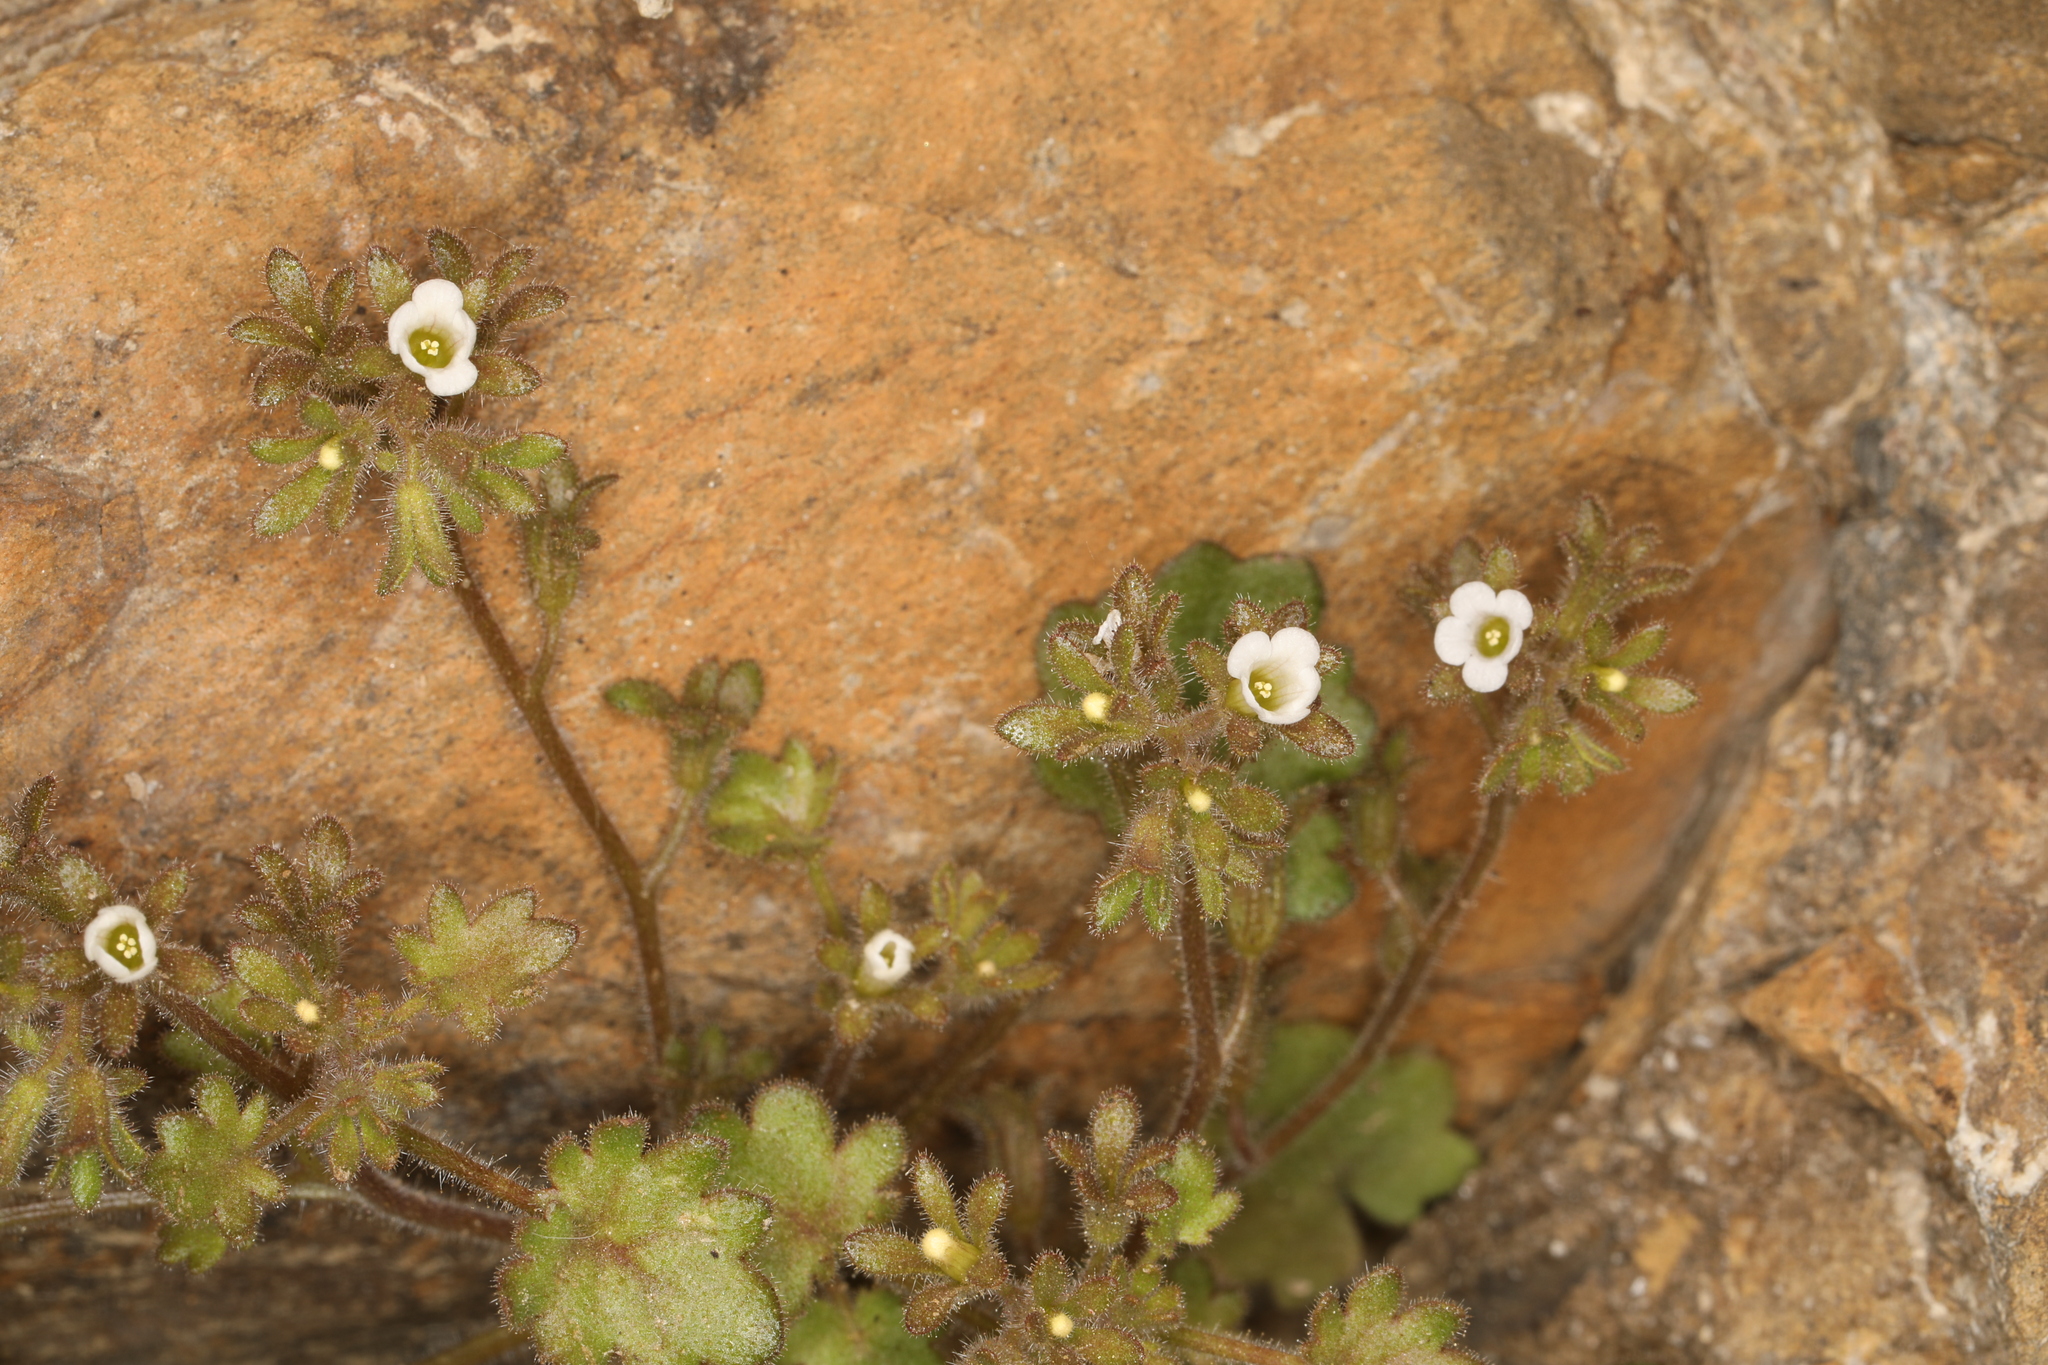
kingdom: Plantae
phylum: Tracheophyta
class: Magnoliopsida
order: Boraginales
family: Hydrophyllaceae
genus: Phacelia
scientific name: Phacelia rotundifolia
